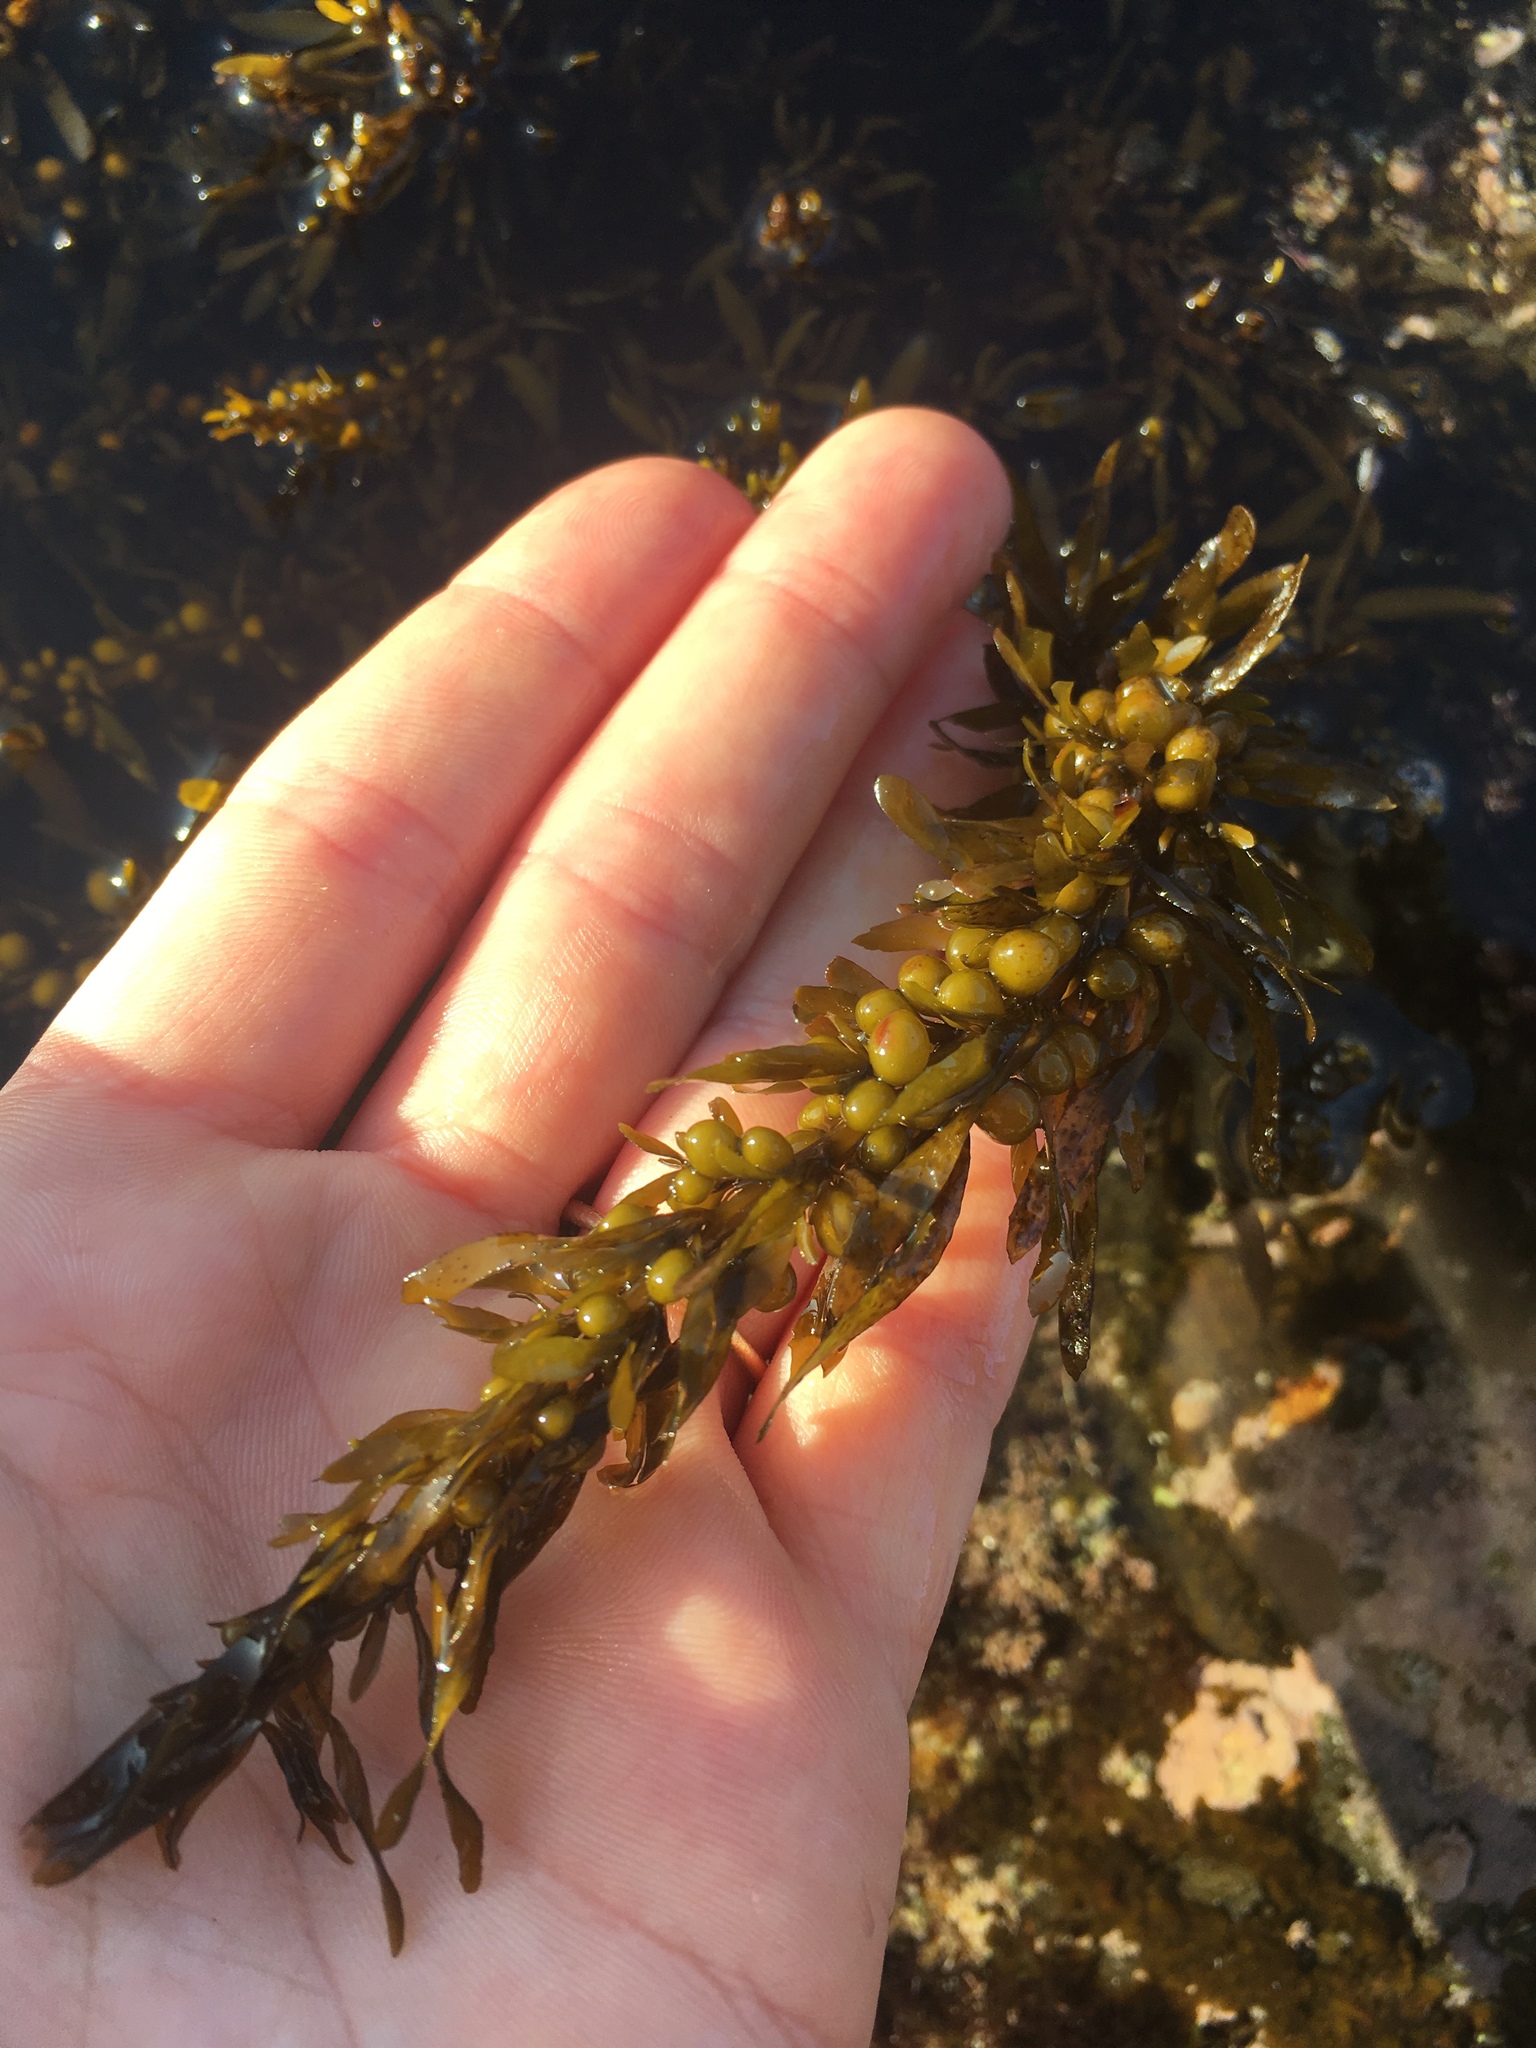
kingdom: Chromista
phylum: Ochrophyta
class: Phaeophyceae
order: Fucales
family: Sargassaceae
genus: Sargassum
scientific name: Sargassum muticum
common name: Japweed
